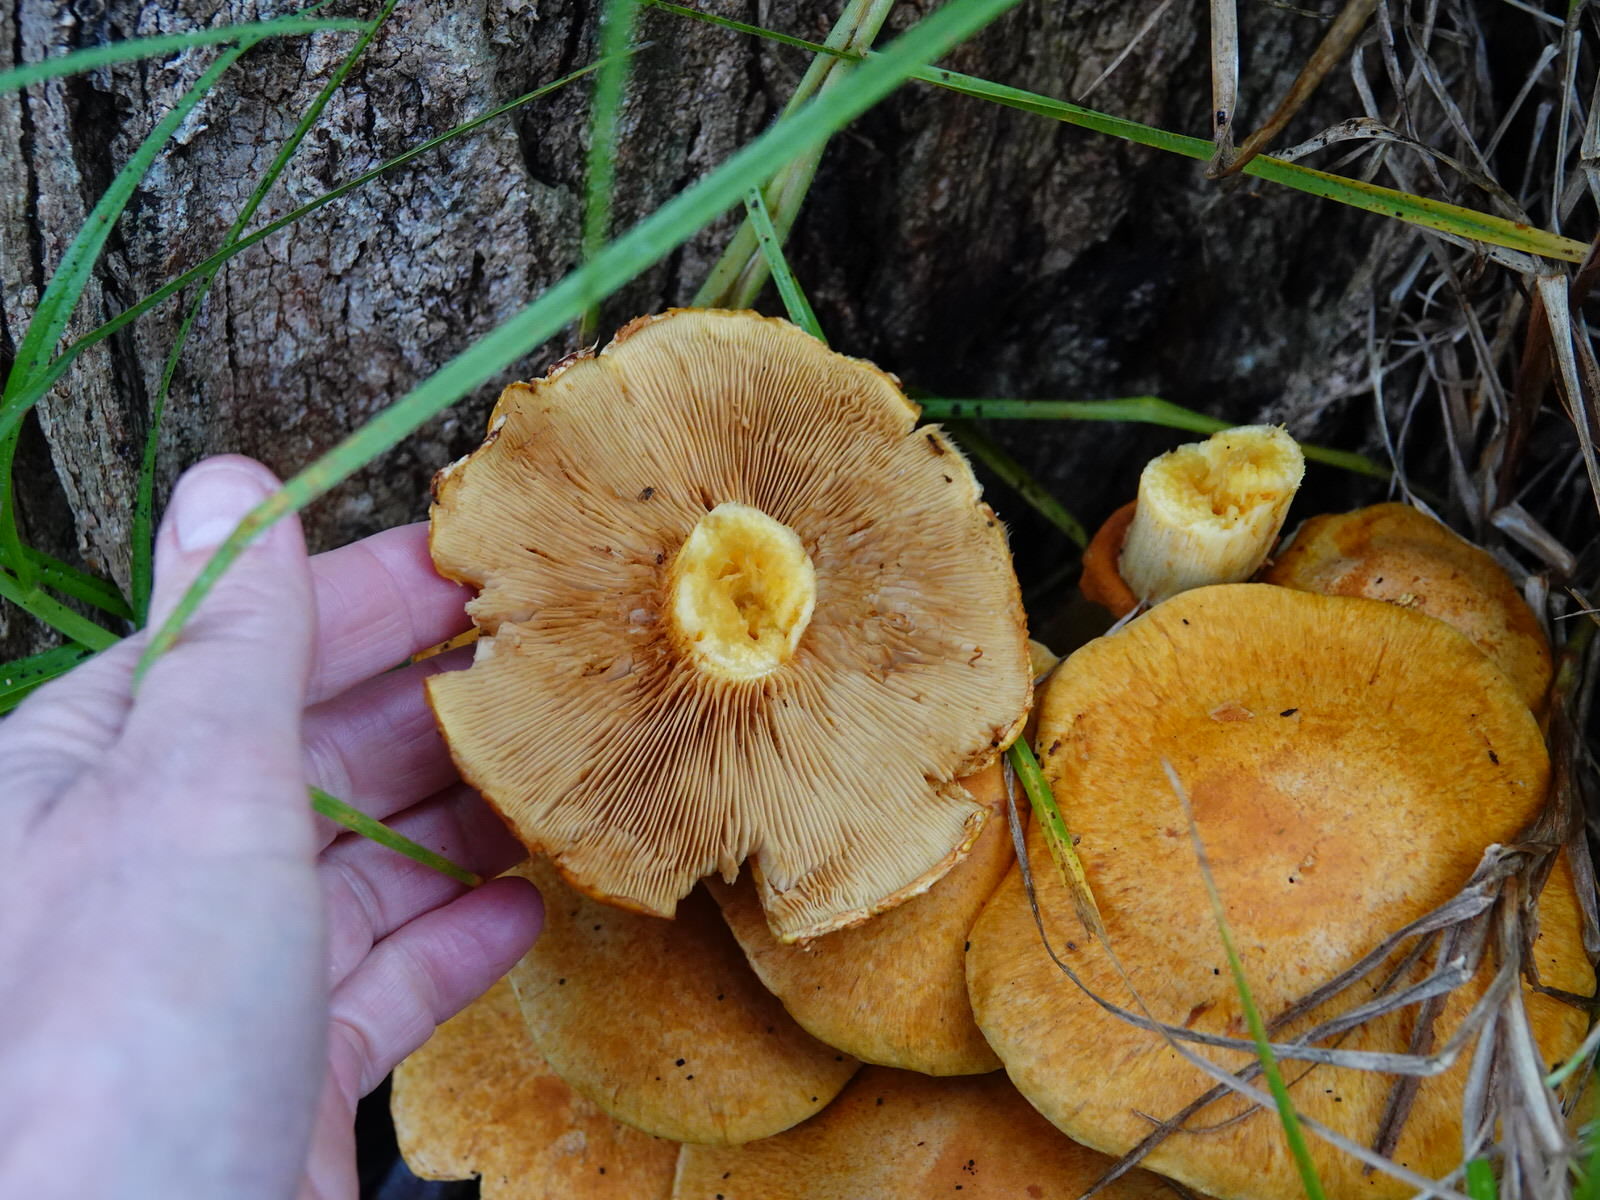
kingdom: Fungi
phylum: Basidiomycota
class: Agaricomycetes
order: Agaricales
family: Hymenogastraceae
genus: Gymnopilus
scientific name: Gymnopilus junonius
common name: Spectacular rustgill
